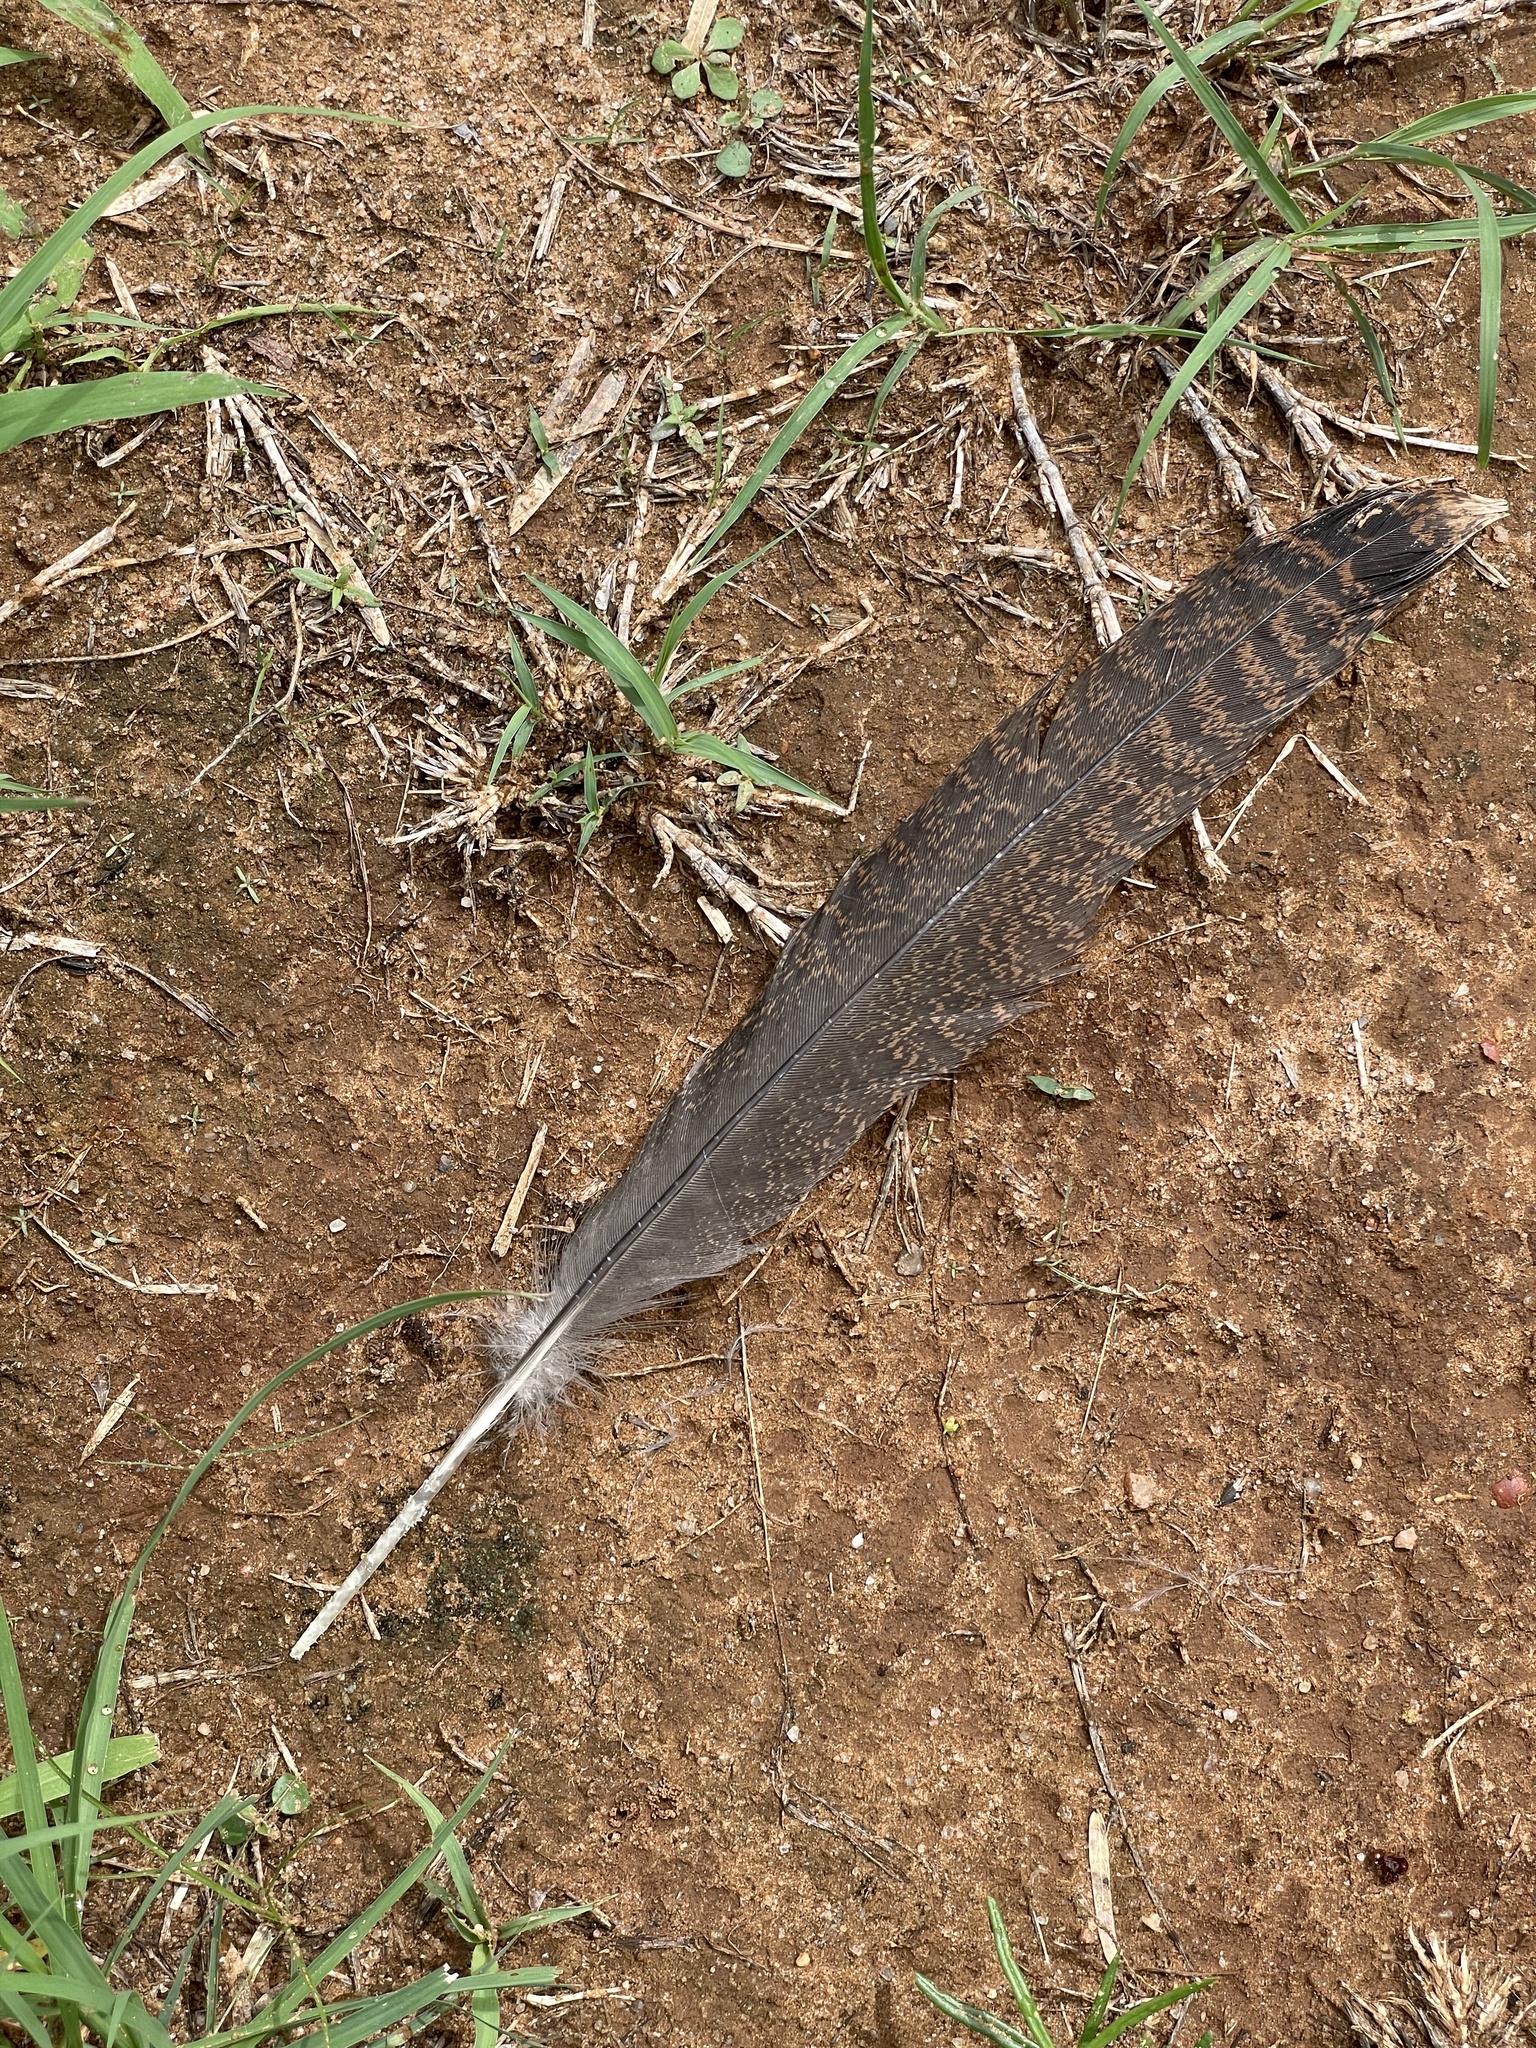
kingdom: Animalia
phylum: Chordata
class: Aves
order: Galliformes
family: Phasianidae
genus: Meleagris
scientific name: Meleagris gallopavo
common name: Wild turkey
